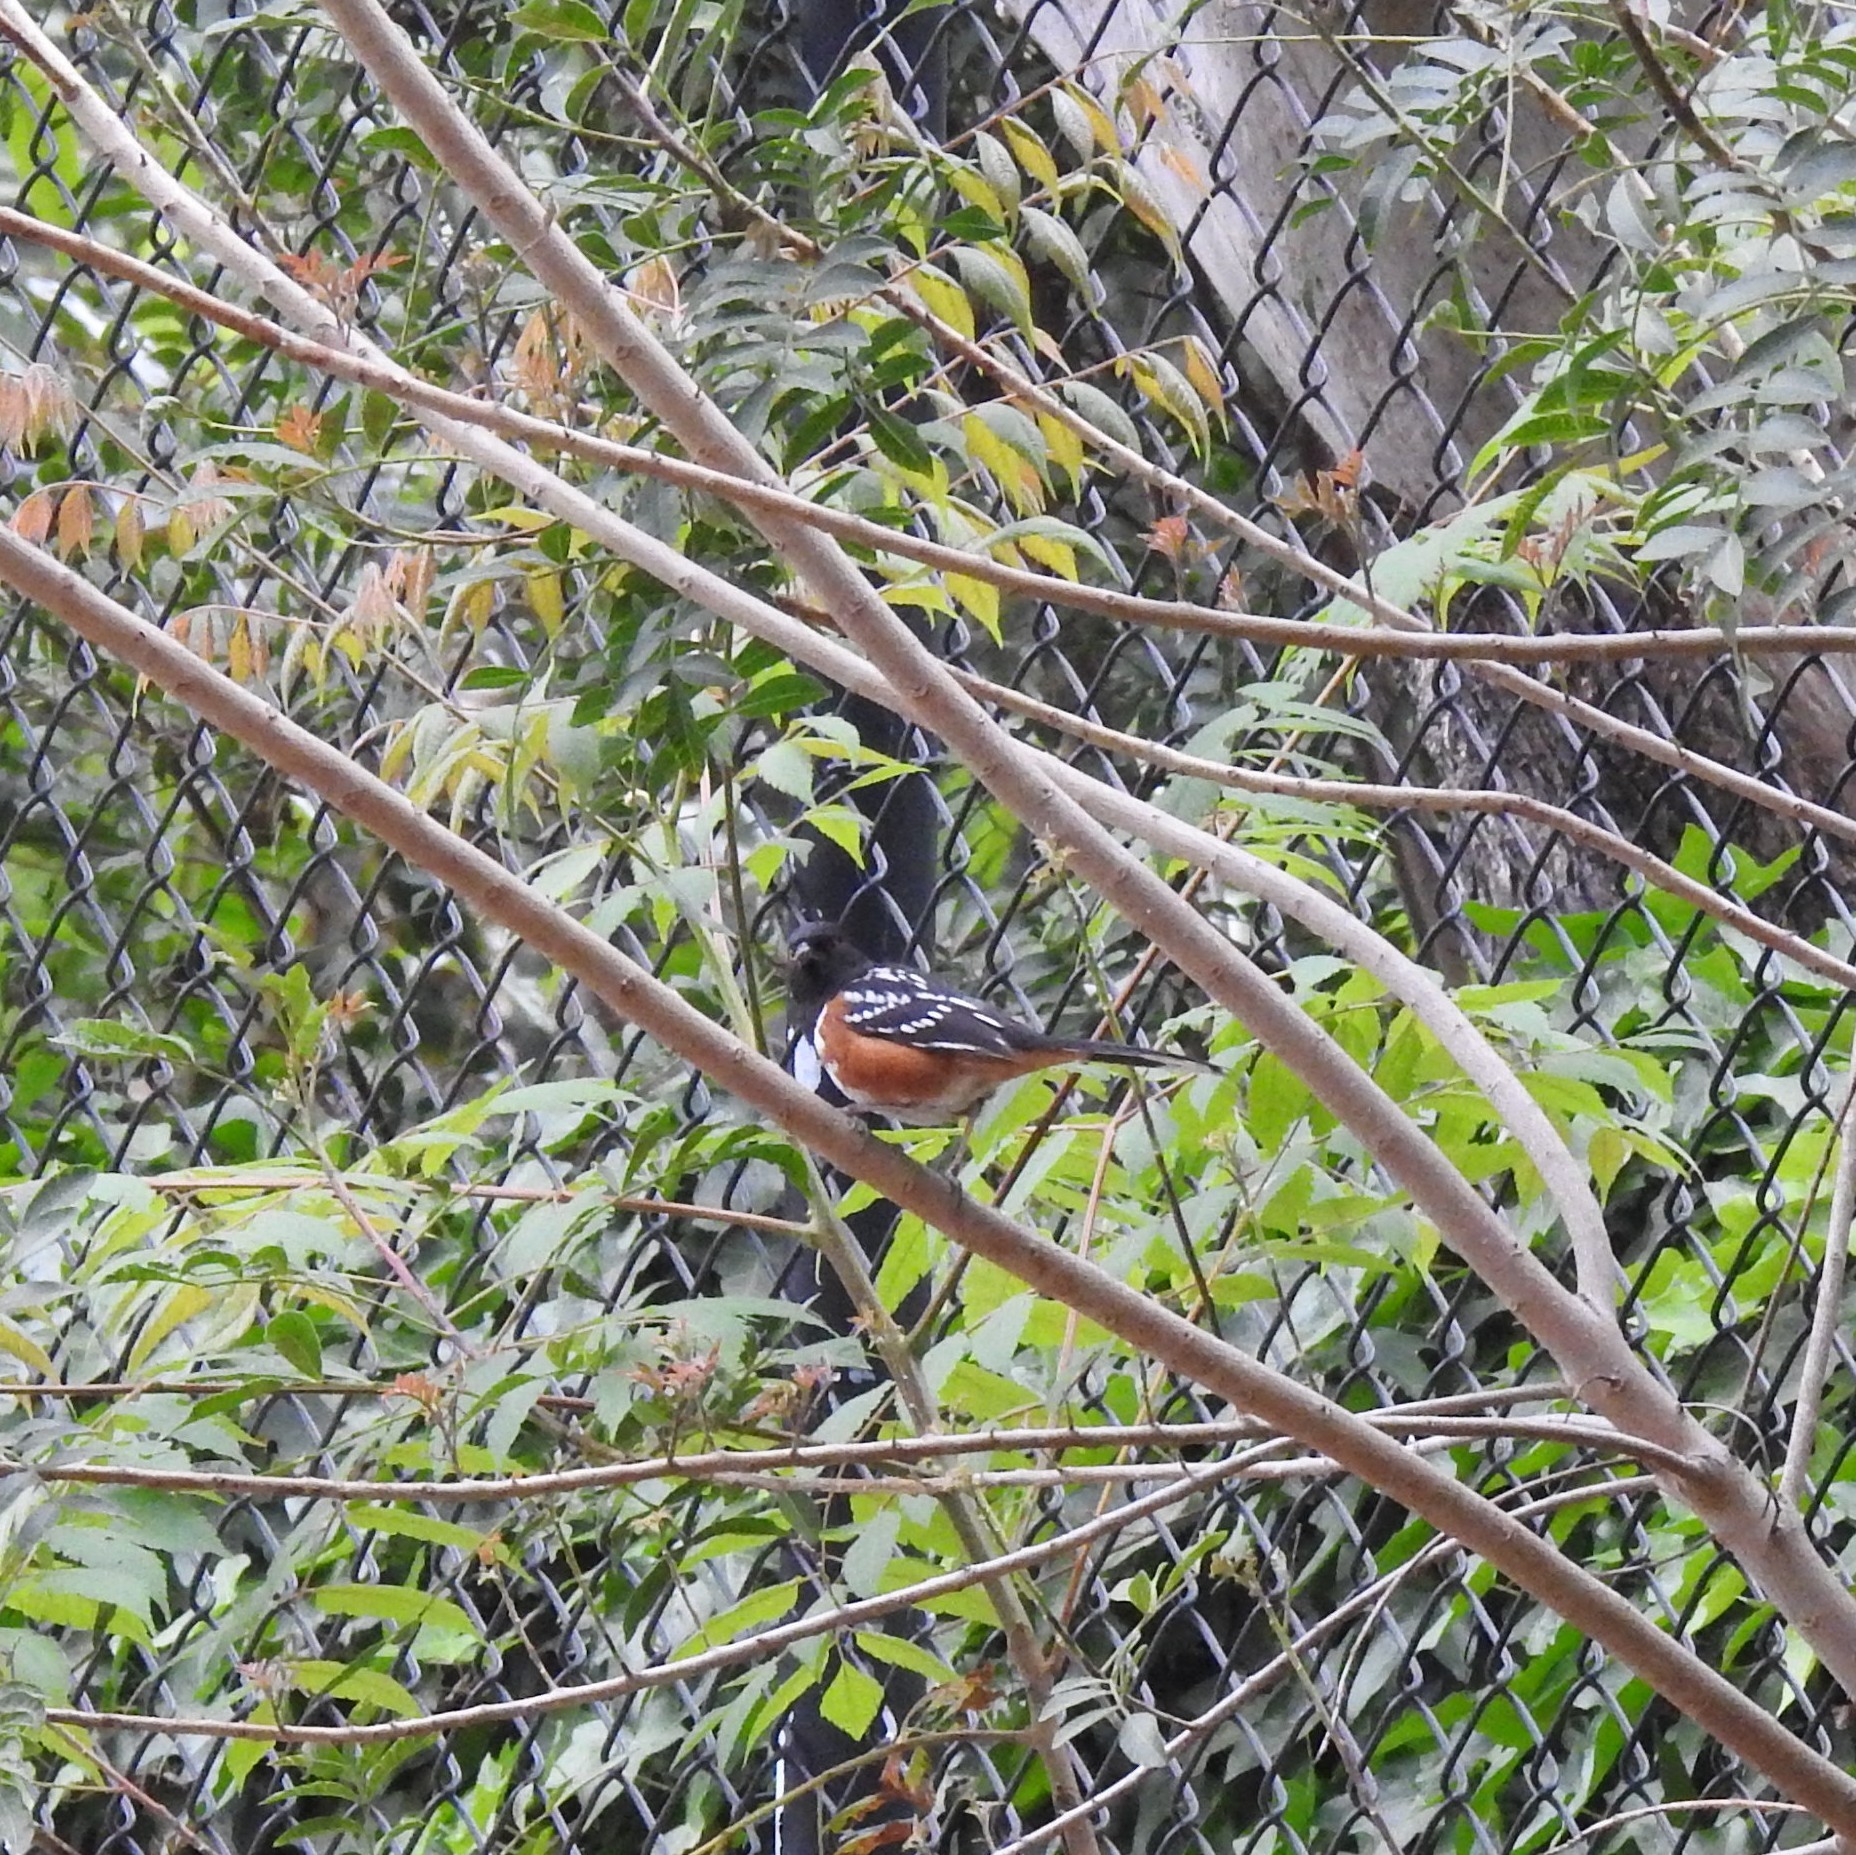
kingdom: Animalia
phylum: Chordata
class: Aves
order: Passeriformes
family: Passerellidae
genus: Pipilo
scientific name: Pipilo maculatus
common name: Spotted towhee
